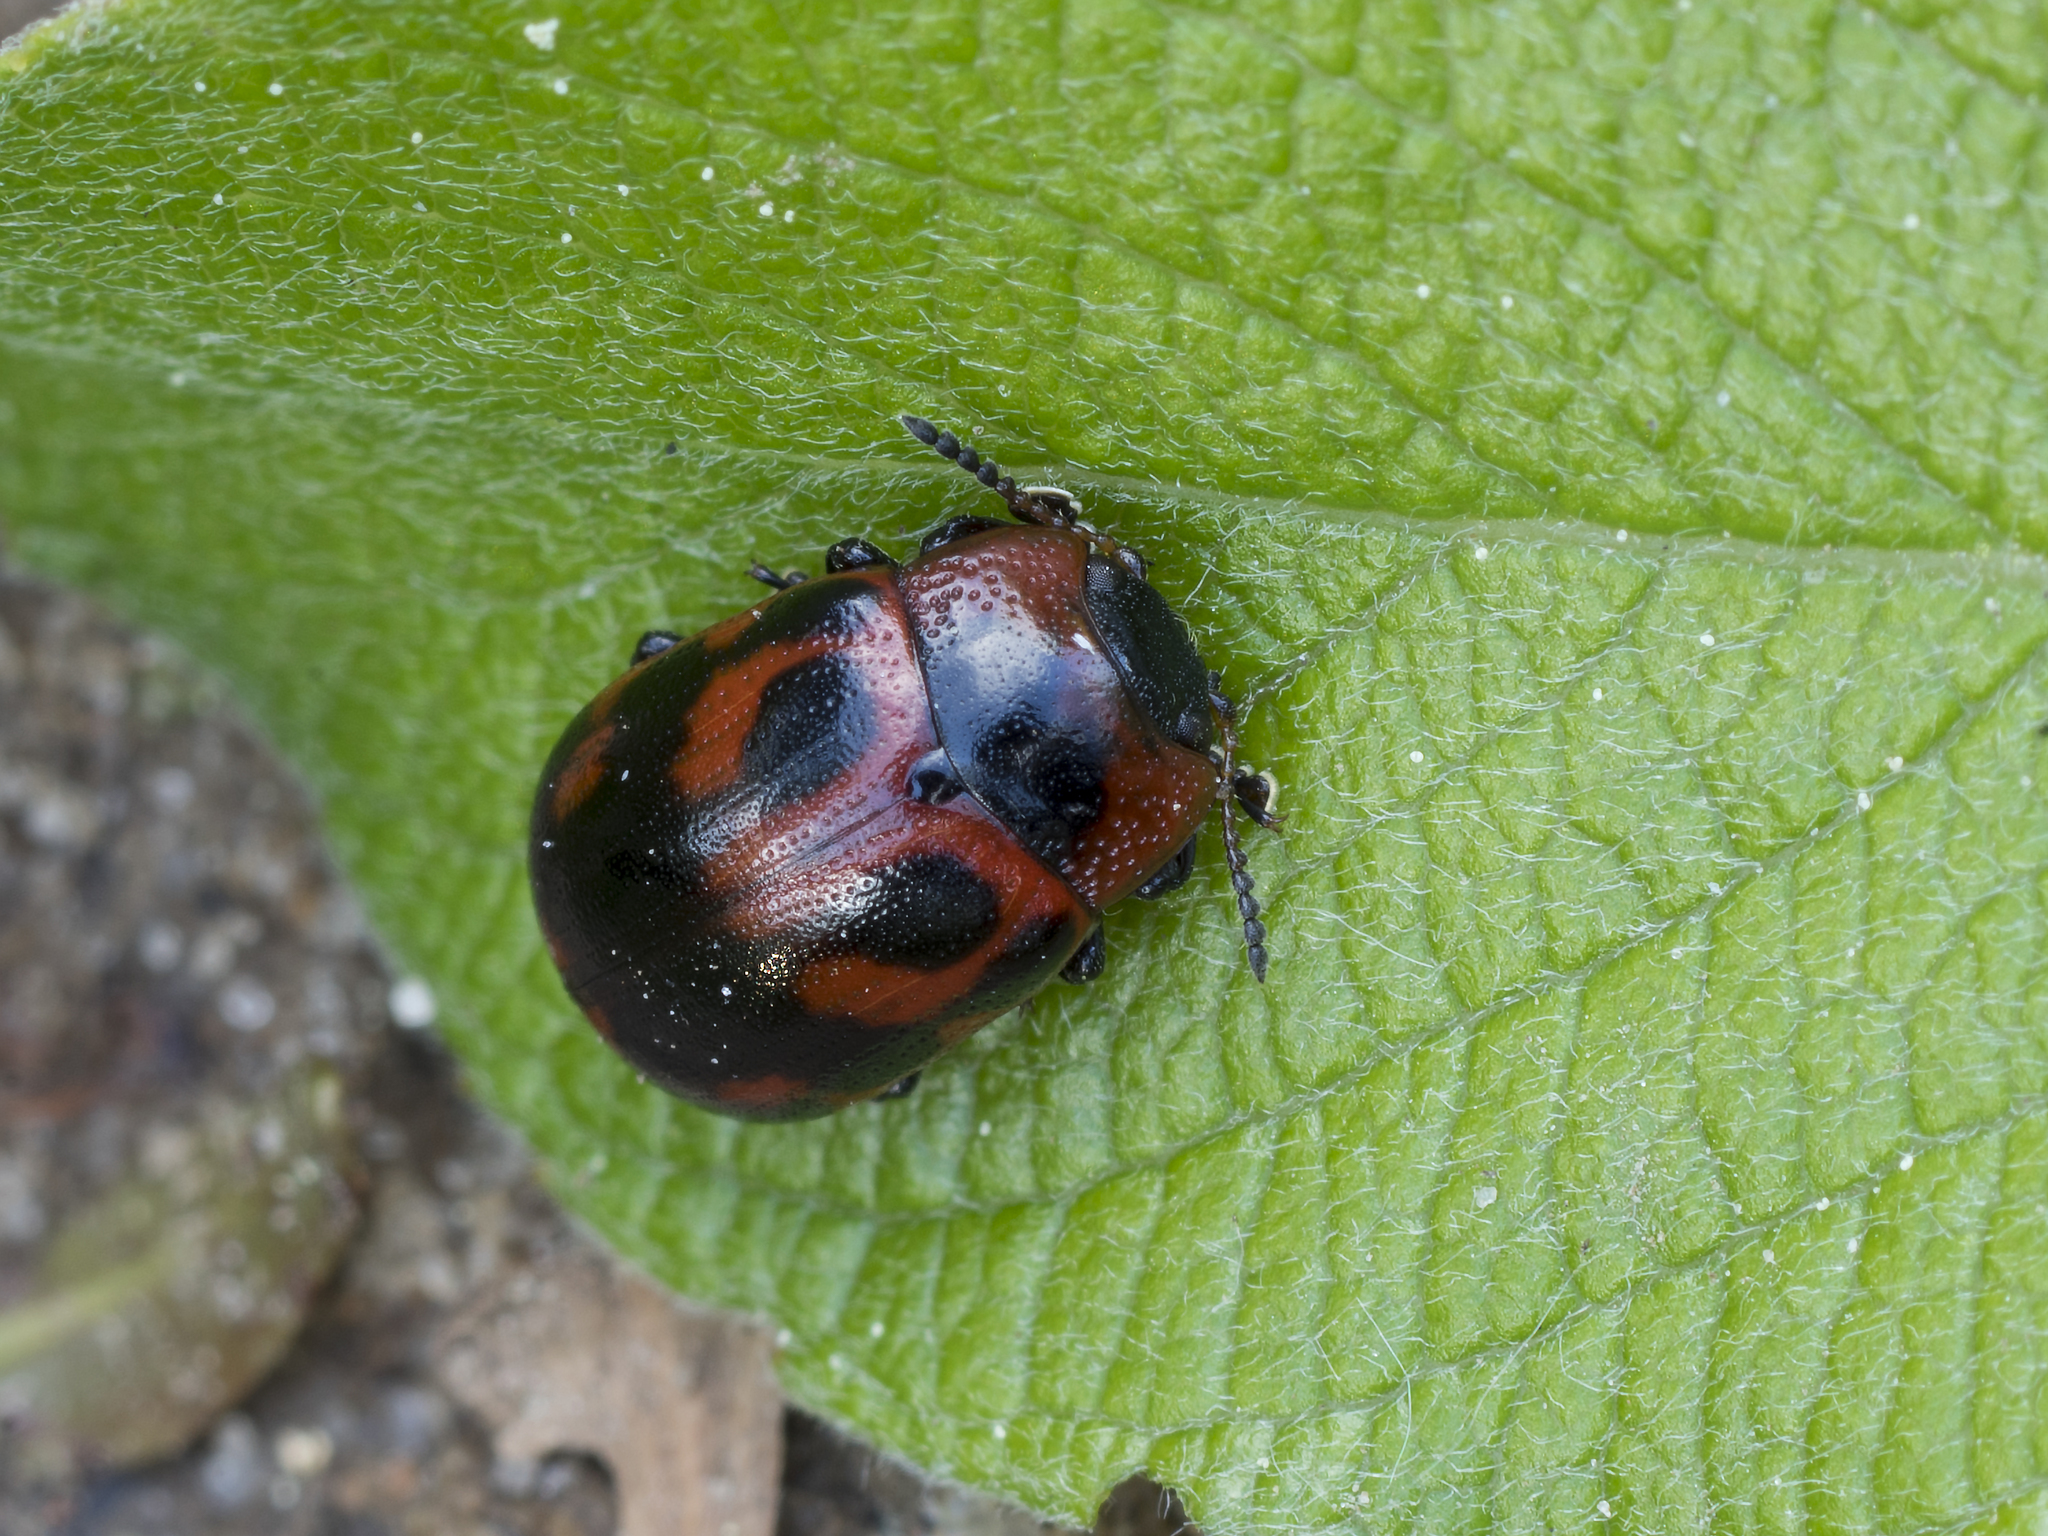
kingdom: Animalia
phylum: Arthropoda
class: Insecta
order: Coleoptera
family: Chrysomelidae
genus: Gonioctena
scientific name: Gonioctena viminalis
